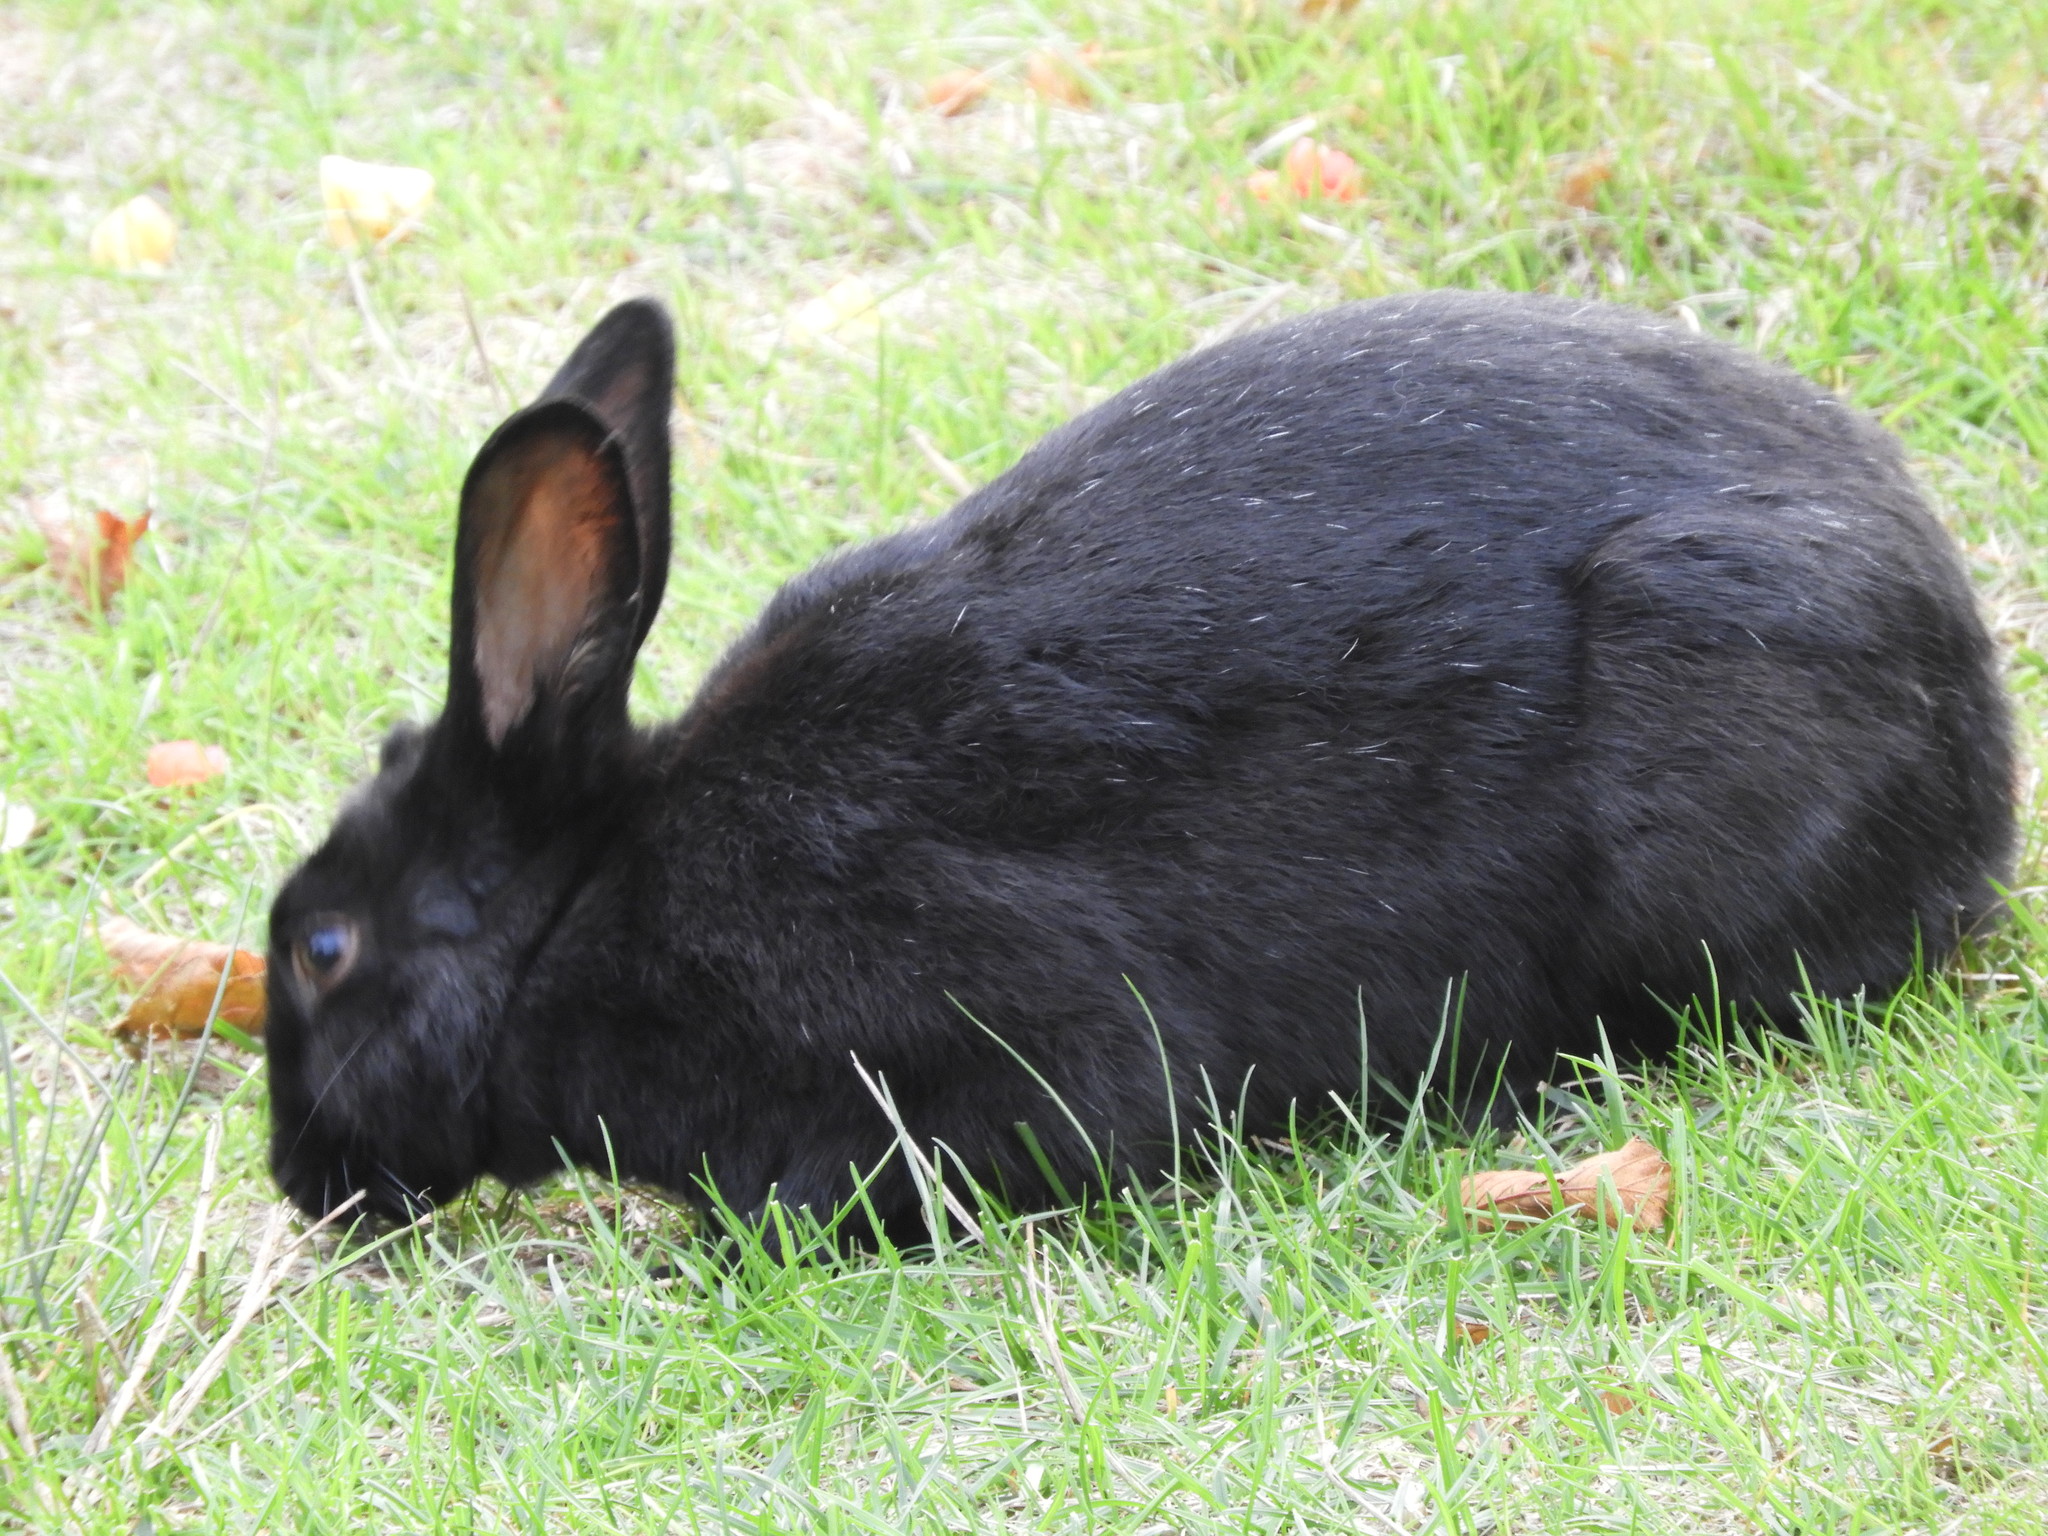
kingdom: Animalia
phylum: Chordata
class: Mammalia
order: Lagomorpha
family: Leporidae
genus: Oryctolagus
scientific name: Oryctolagus cuniculus
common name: European rabbit
